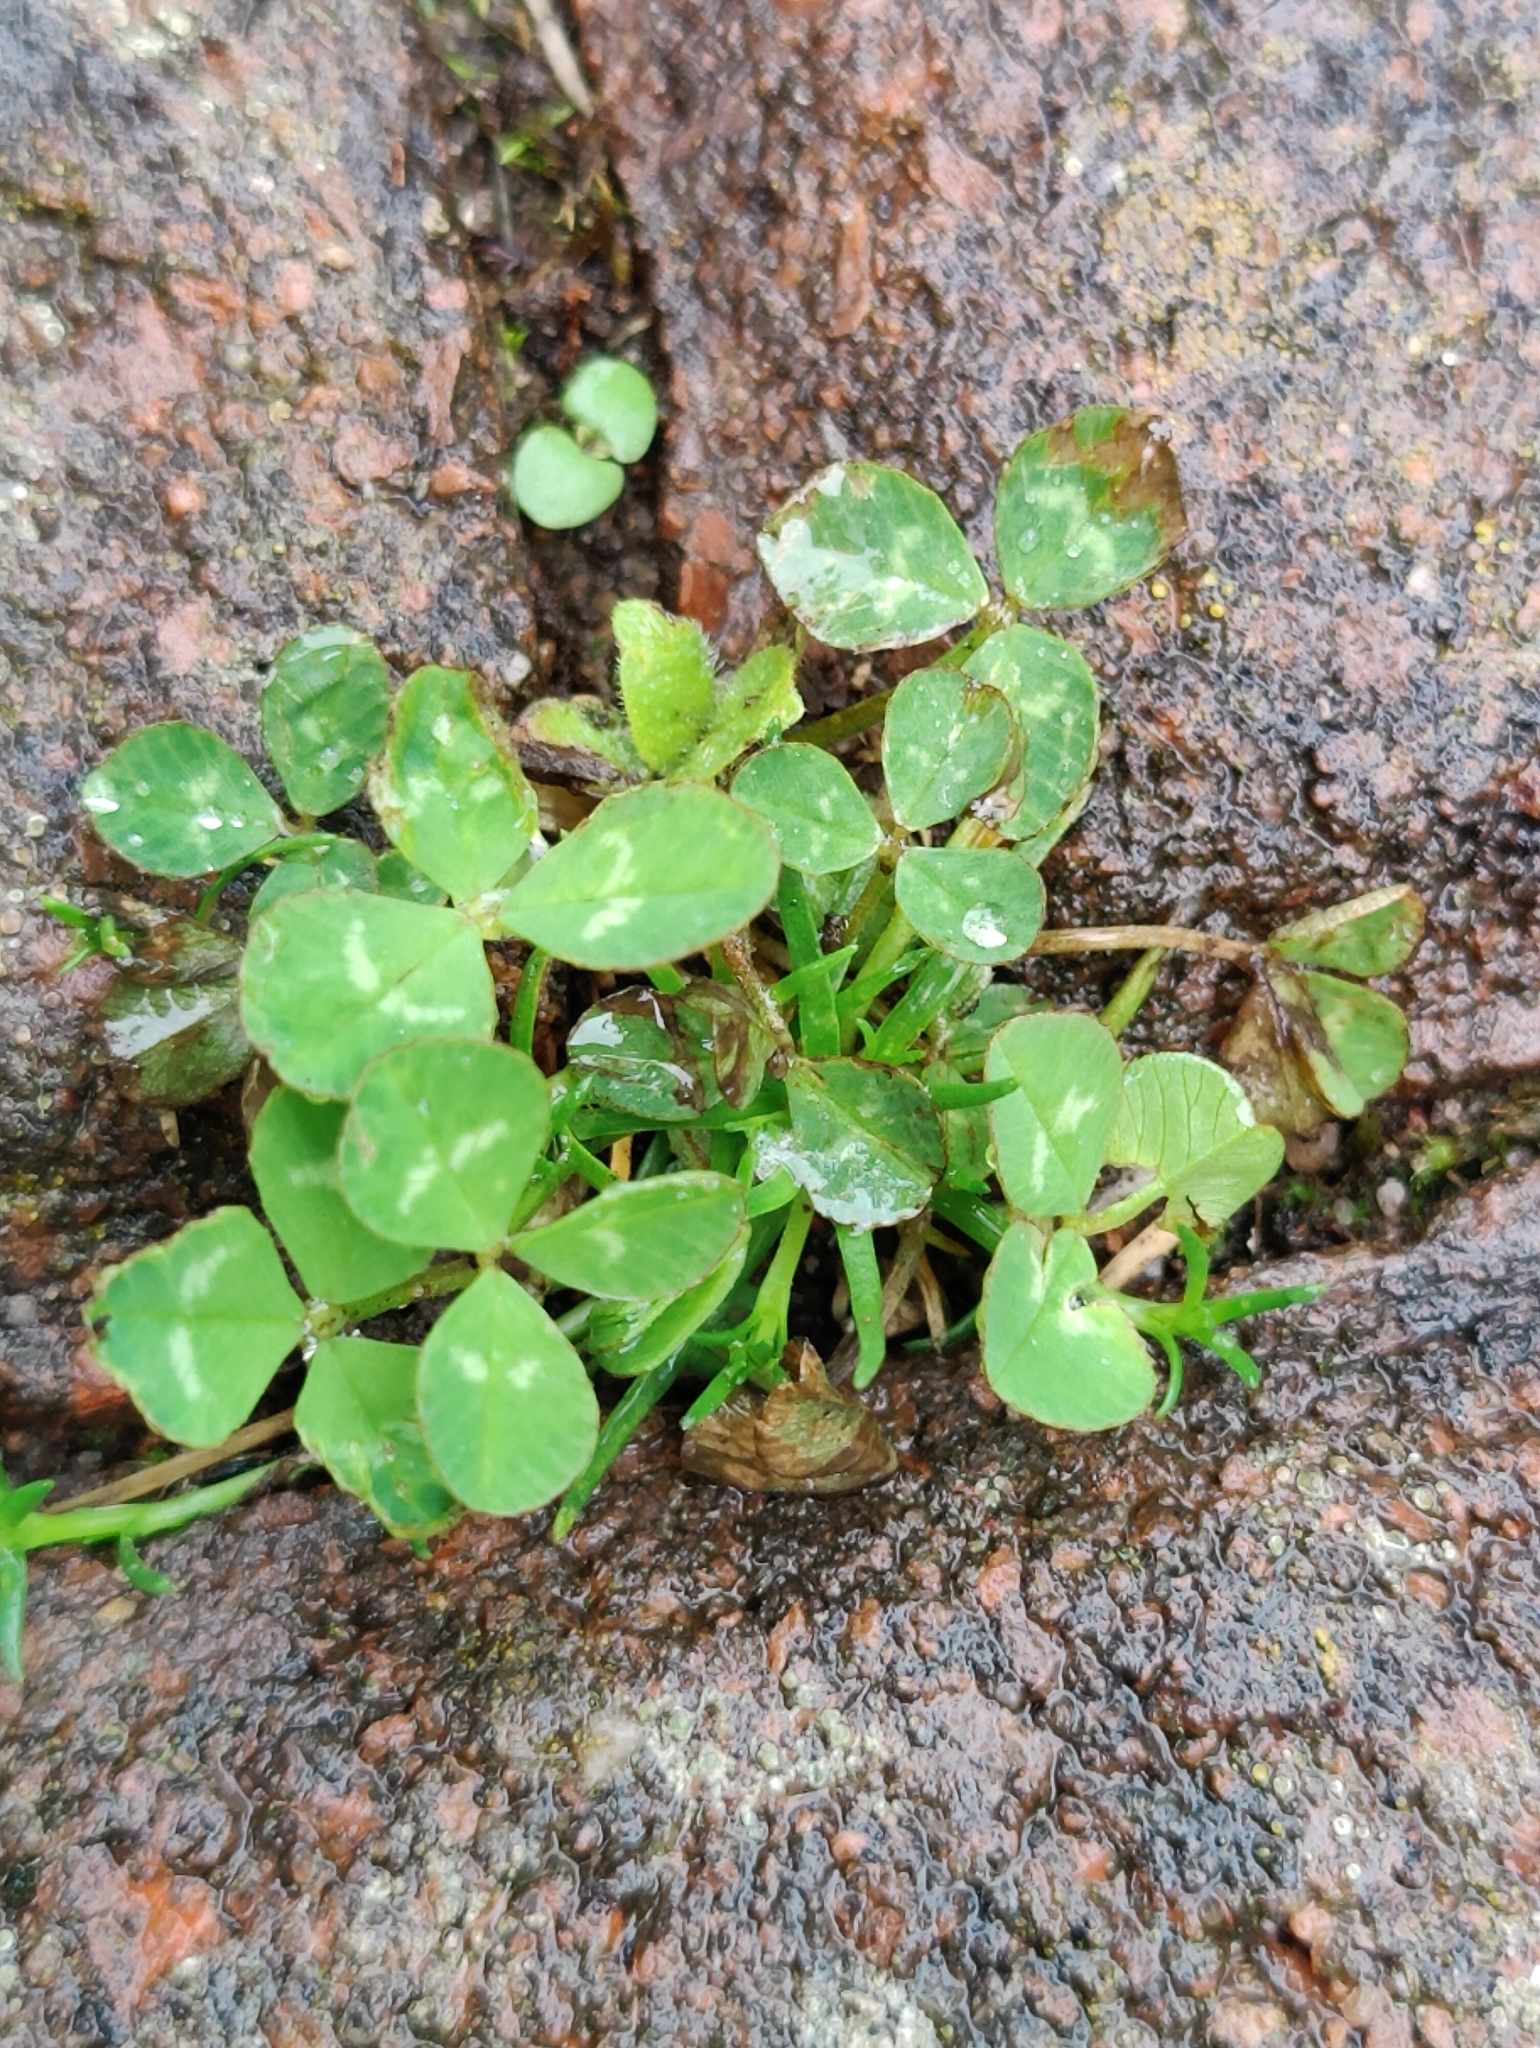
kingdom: Plantae
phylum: Tracheophyta
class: Magnoliopsida
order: Fabales
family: Fabaceae
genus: Trifolium
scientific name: Trifolium repens
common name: White clover
